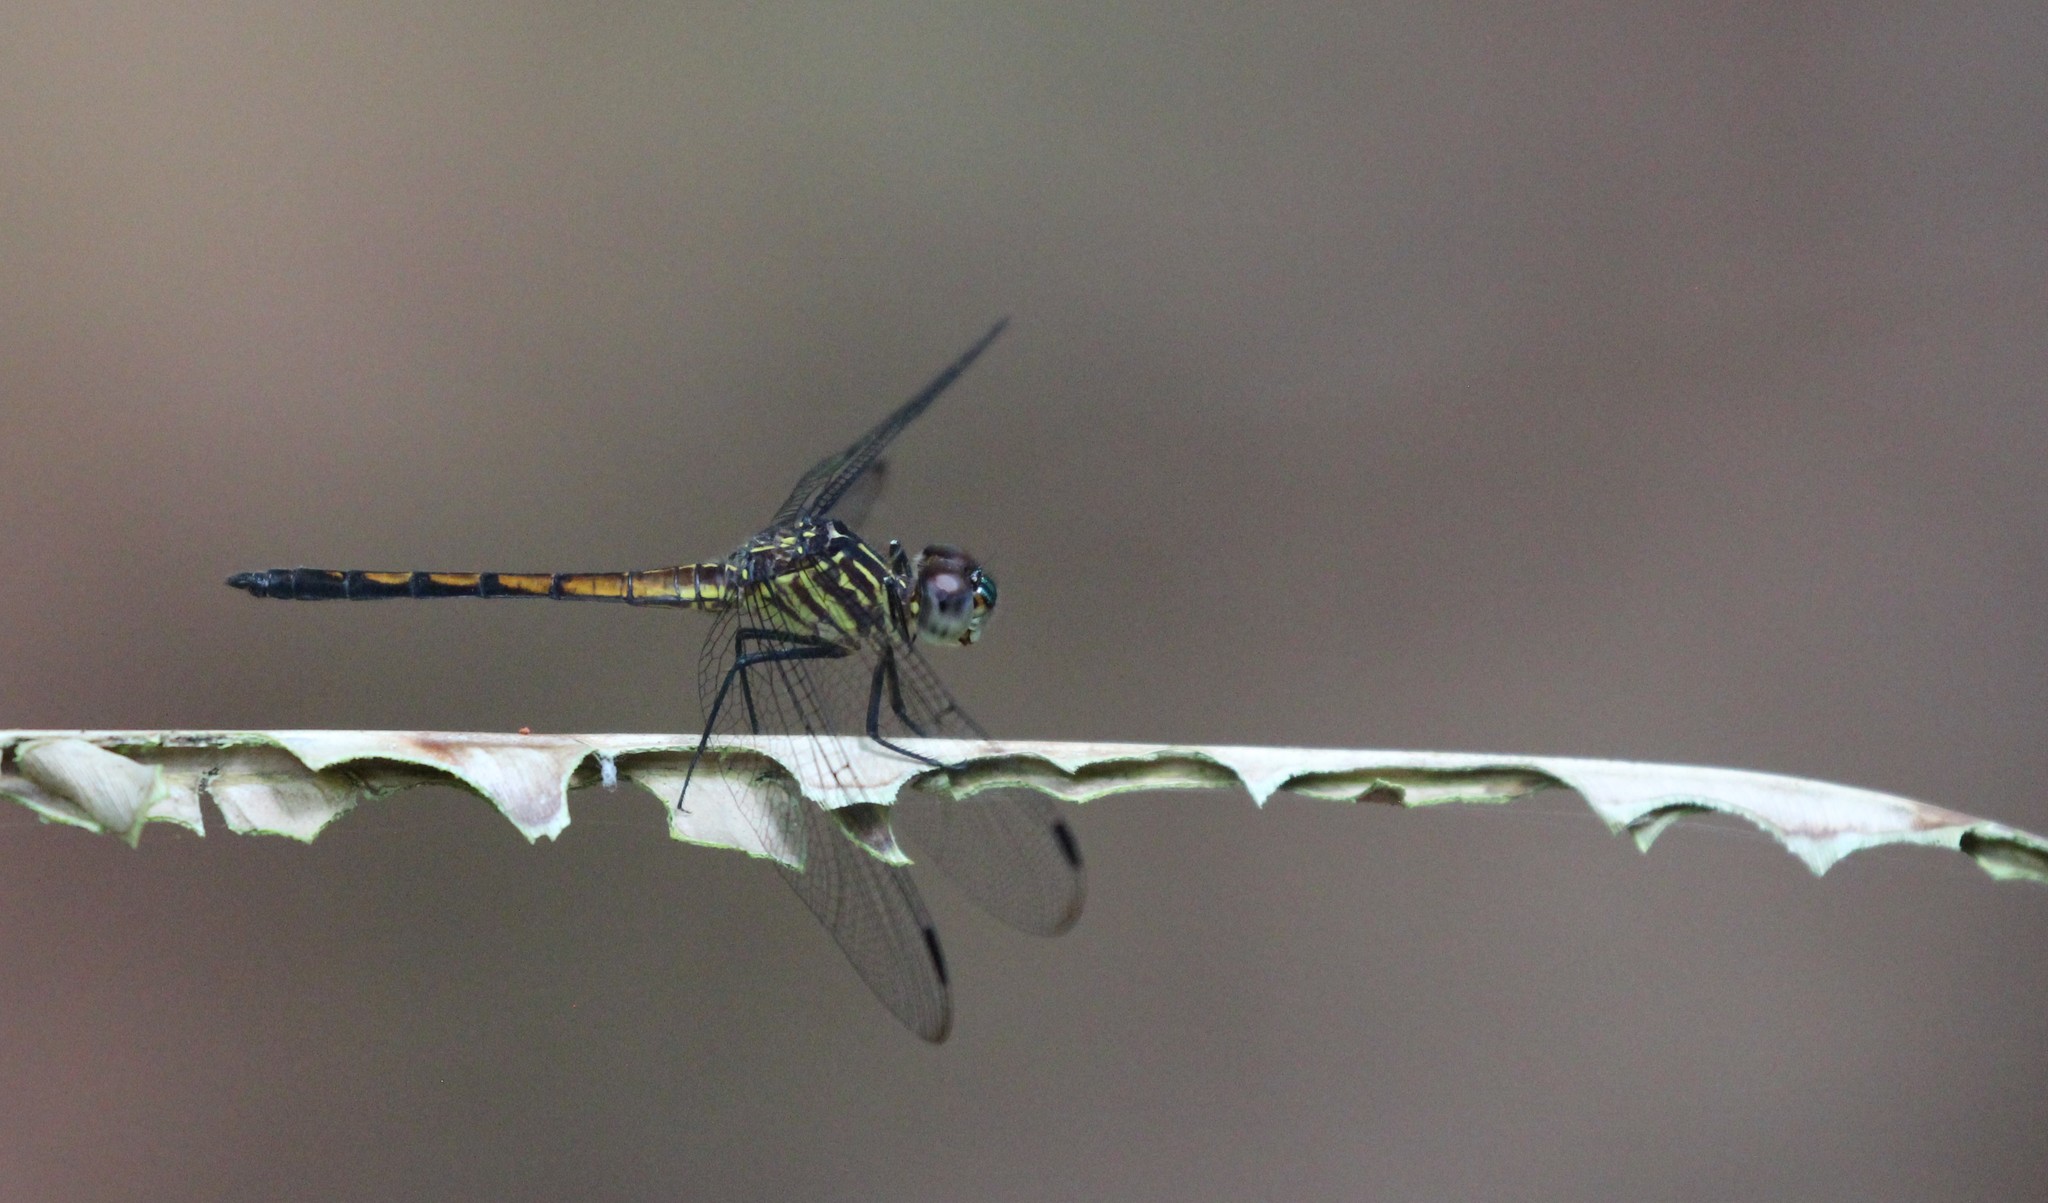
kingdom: Animalia
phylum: Arthropoda
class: Insecta
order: Odonata
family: Libellulidae
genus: Cannaphila
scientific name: Cannaphila insularis
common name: Gray-waisted skimmer
